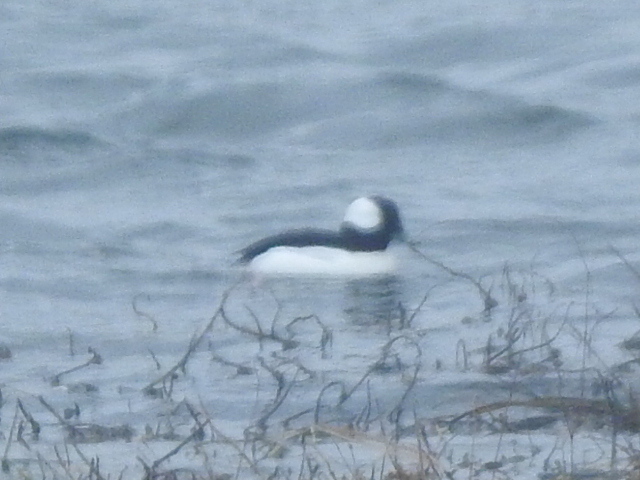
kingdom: Animalia
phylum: Chordata
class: Aves
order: Anseriformes
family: Anatidae
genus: Bucephala
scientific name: Bucephala albeola
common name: Bufflehead
